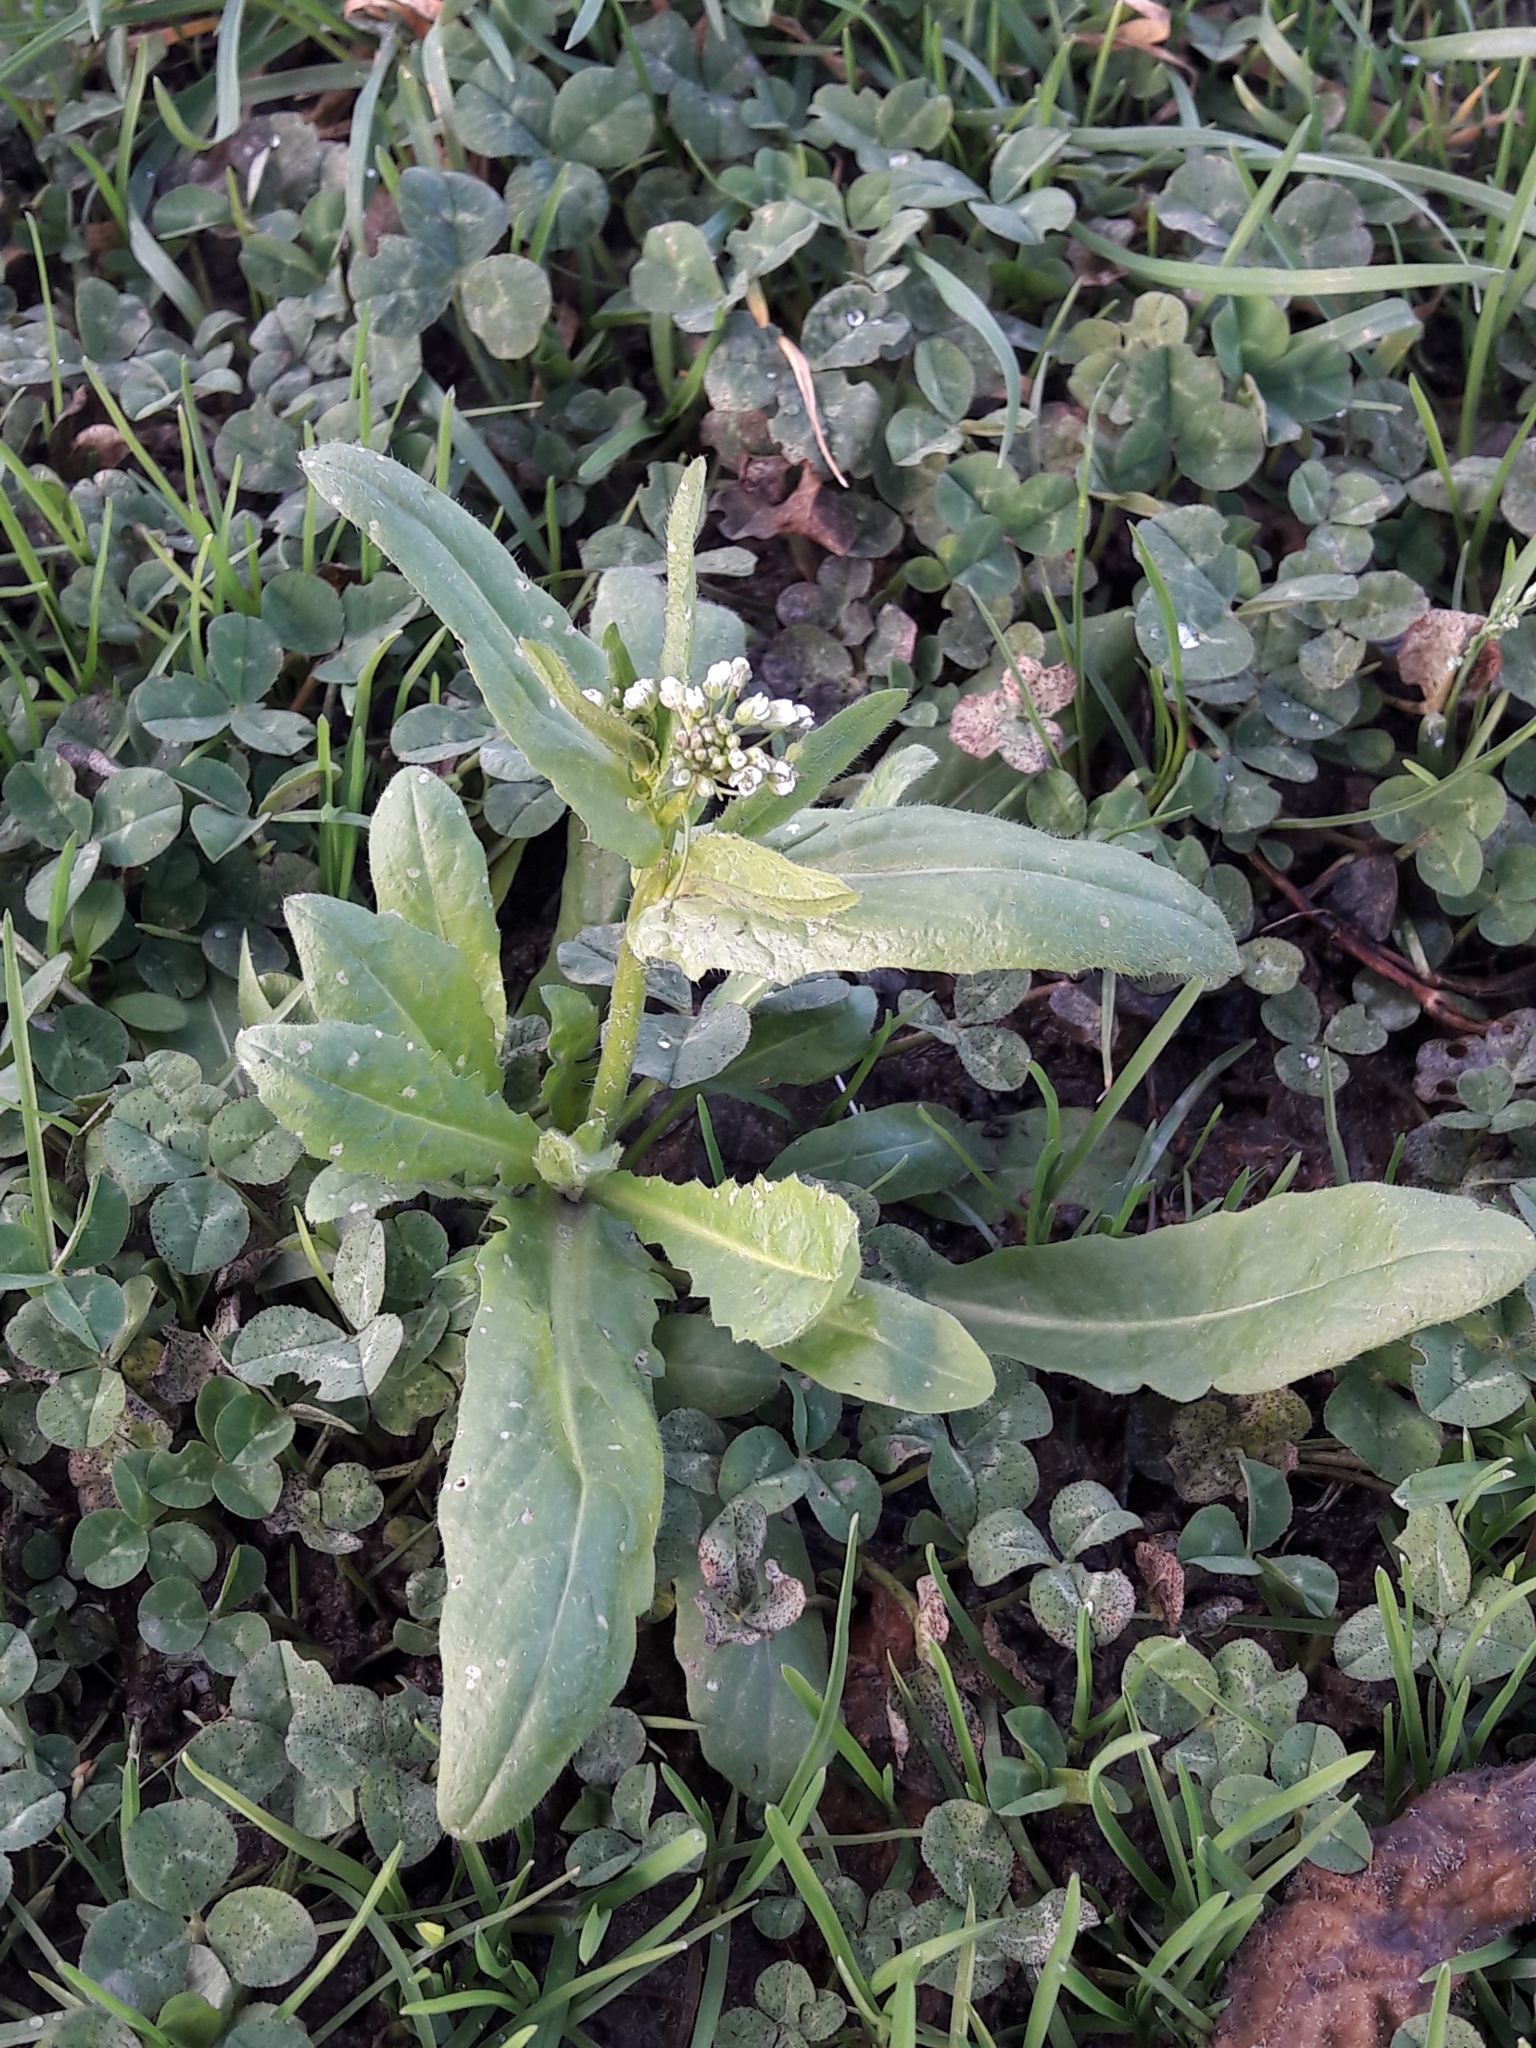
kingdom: Plantae
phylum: Tracheophyta
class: Magnoliopsida
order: Brassicales
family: Brassicaceae
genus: Thlaspi
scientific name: Thlaspi arvense
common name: Field pennycress
